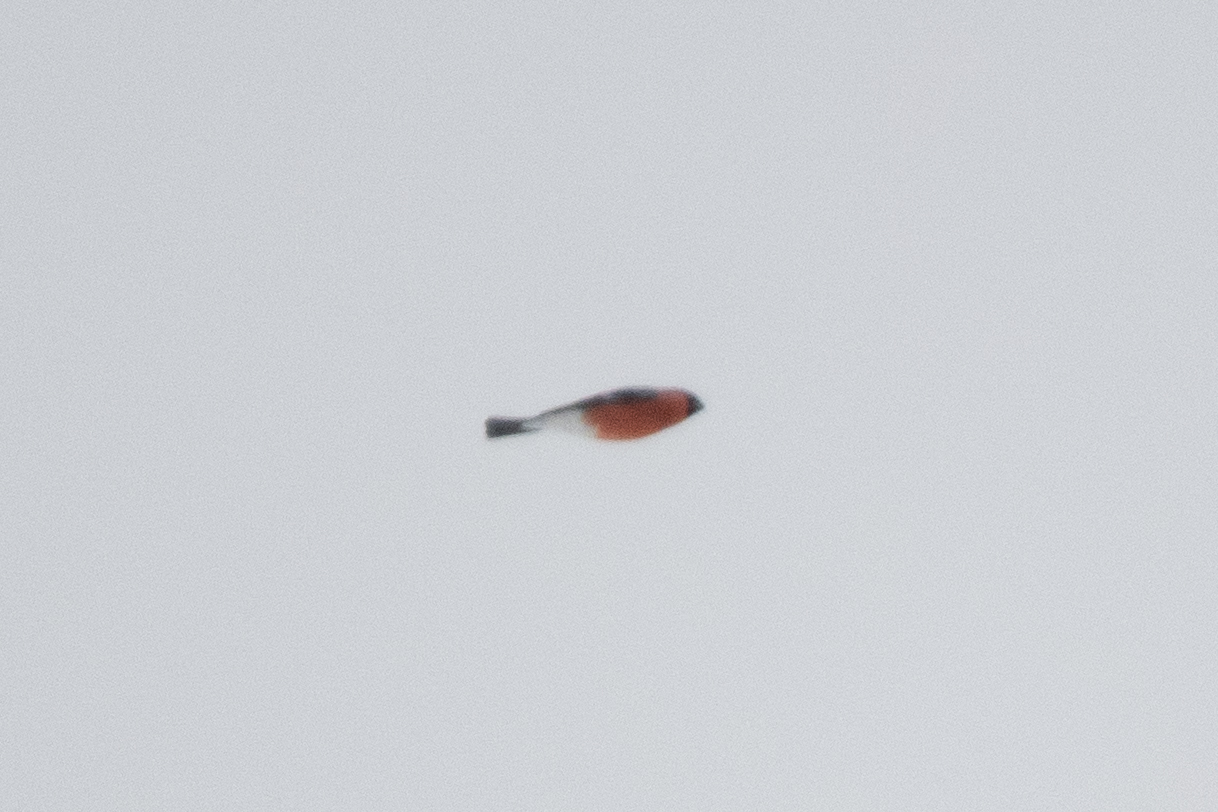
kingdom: Animalia
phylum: Chordata
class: Aves
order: Passeriformes
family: Fringillidae
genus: Pyrrhula
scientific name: Pyrrhula pyrrhula
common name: Eurasian bullfinch
